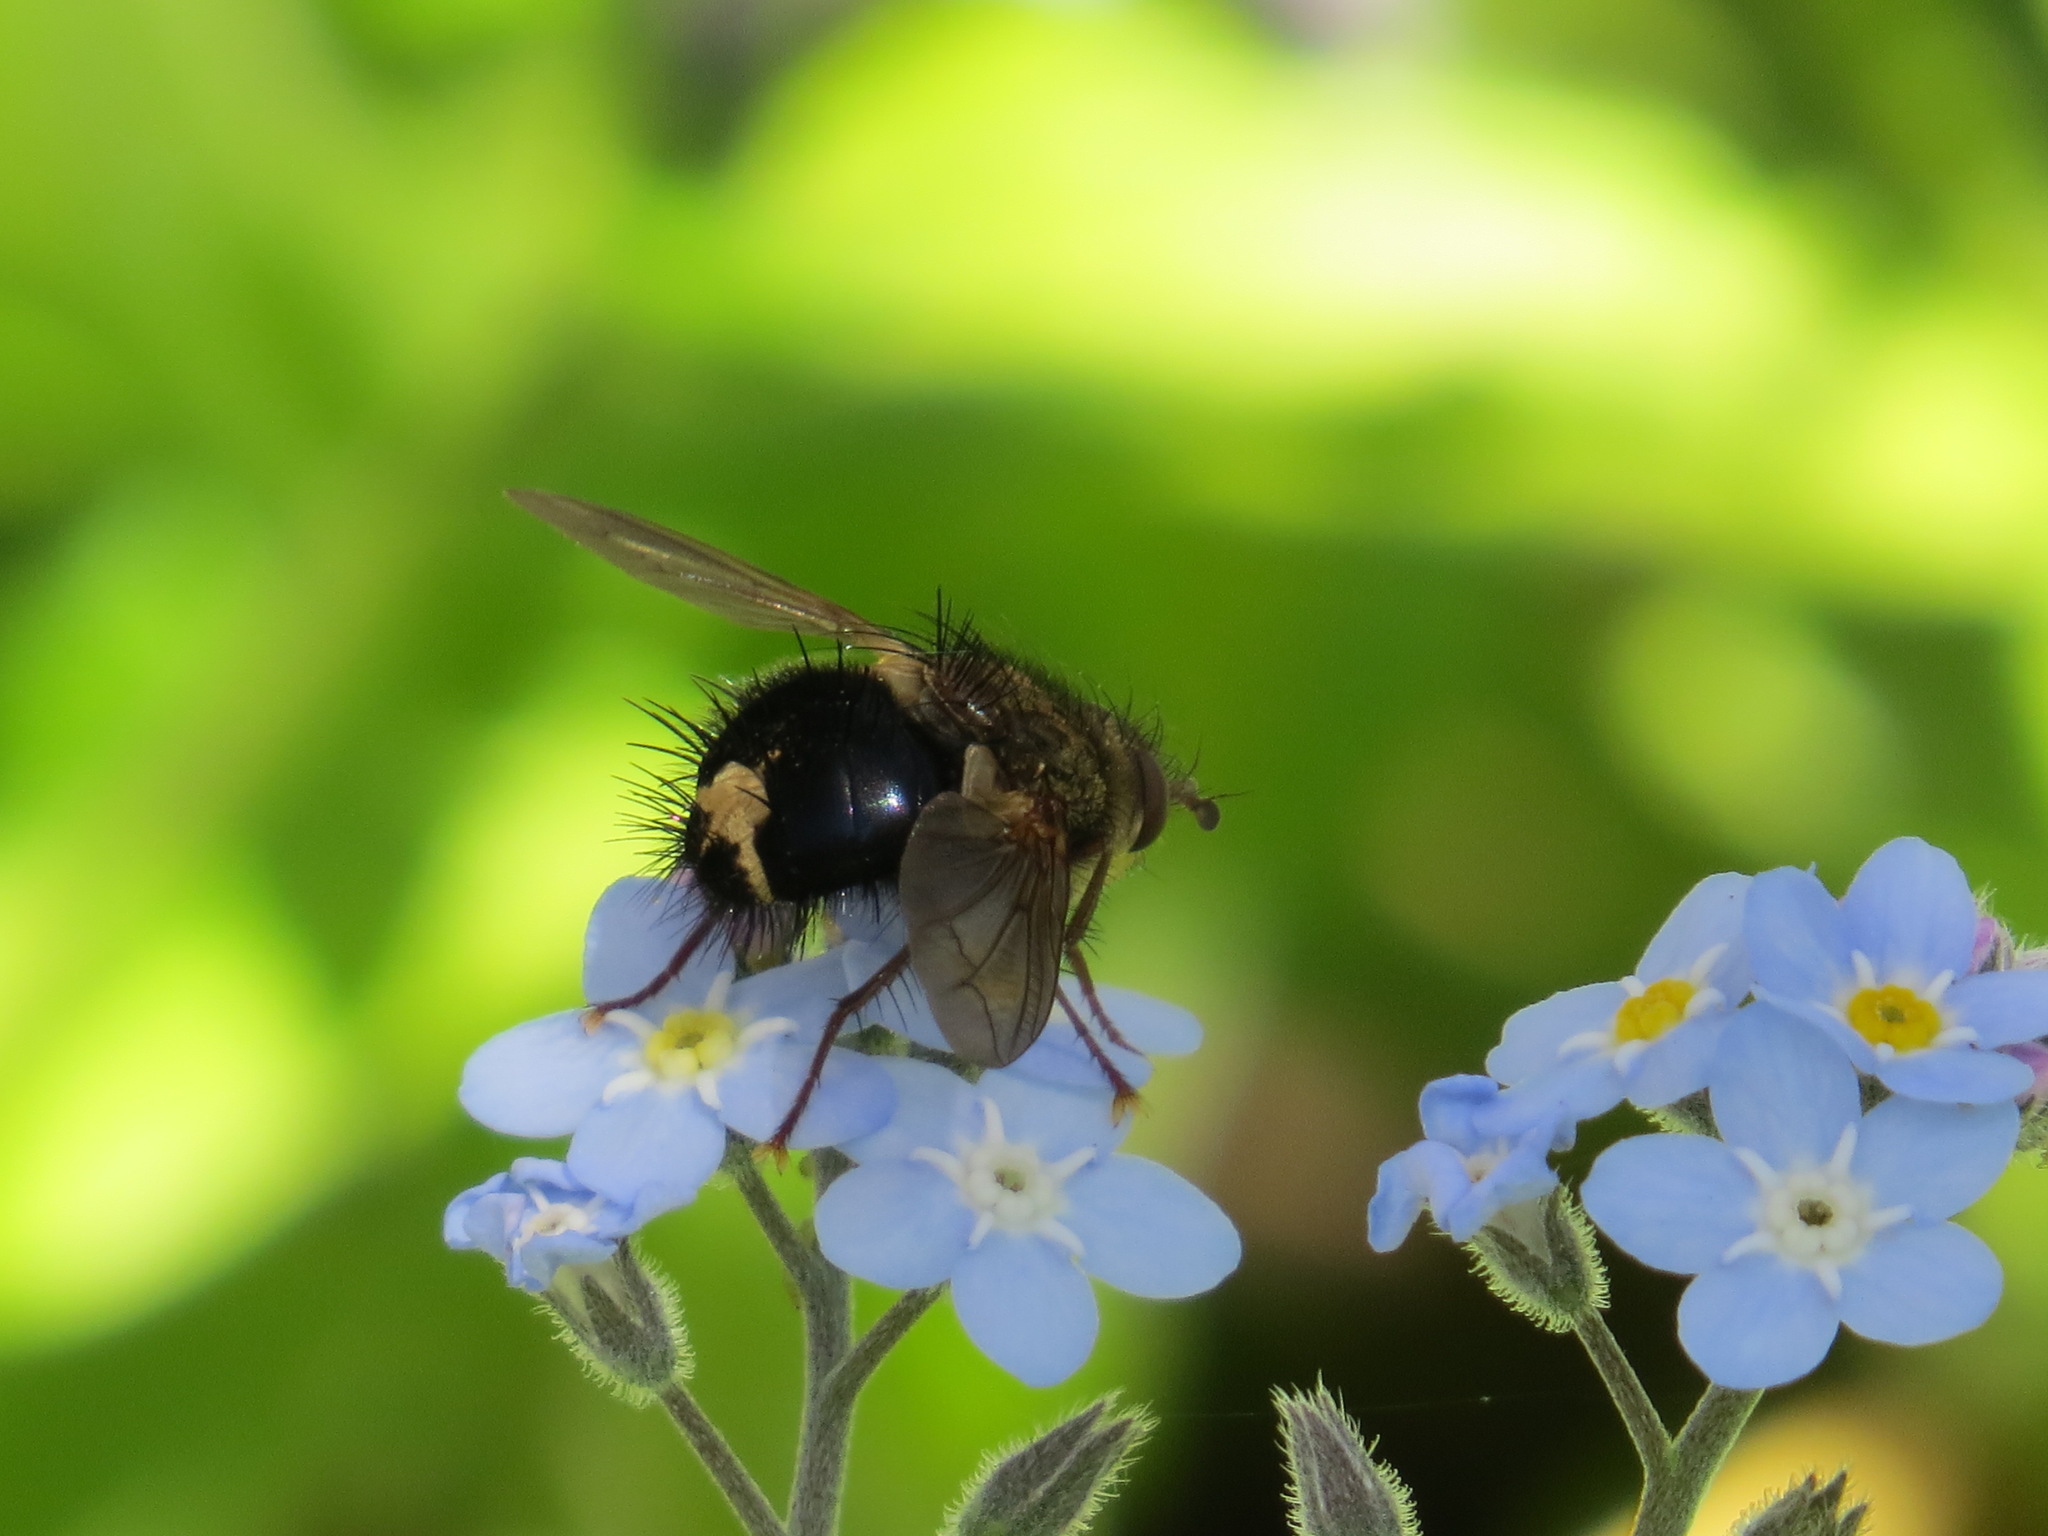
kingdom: Animalia
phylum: Arthropoda
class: Insecta
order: Diptera
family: Tachinidae
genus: Epalpus
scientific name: Epalpus signifer
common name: Early tachinid fly
